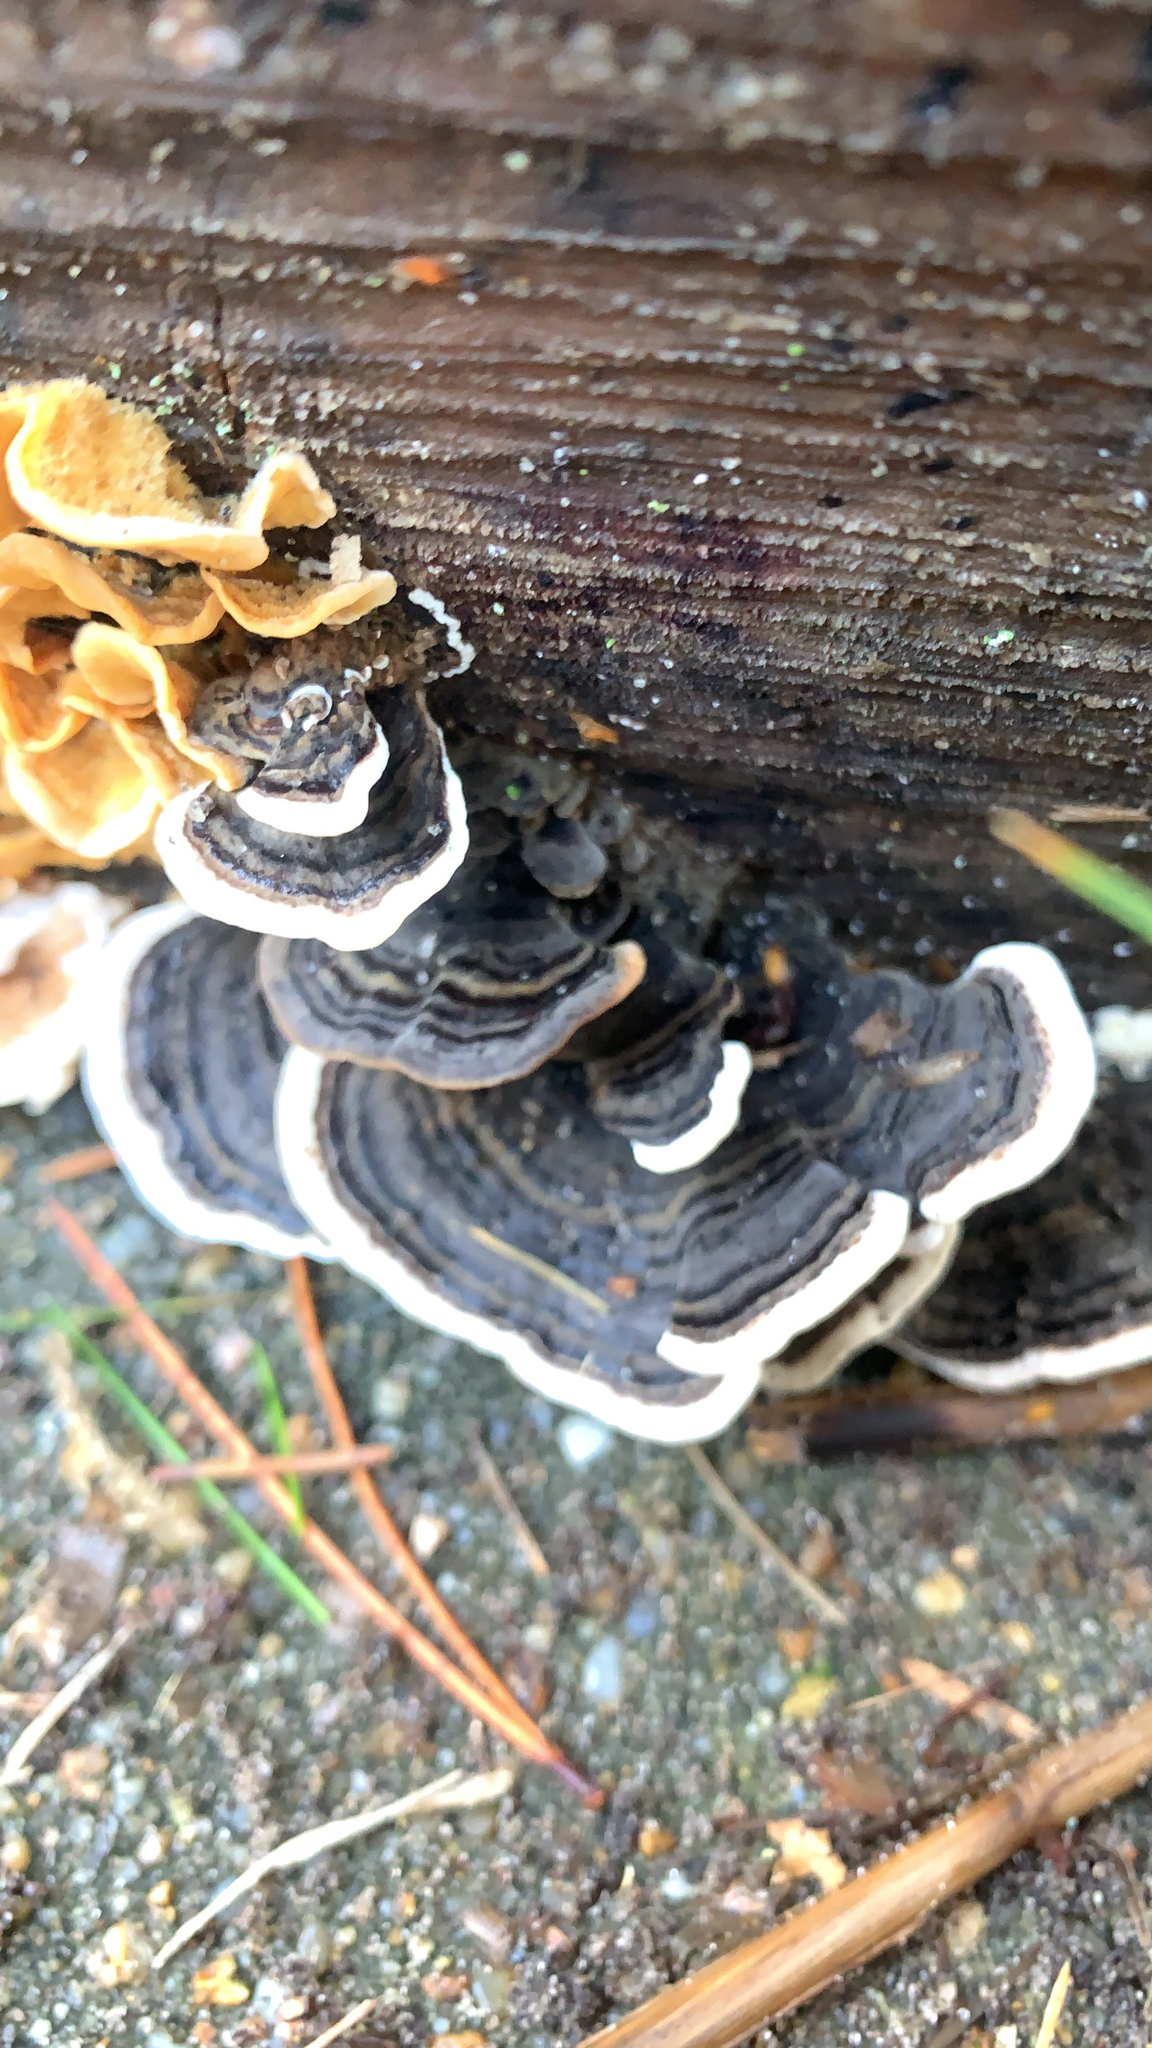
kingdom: Fungi
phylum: Basidiomycota
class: Agaricomycetes
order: Polyporales
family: Polyporaceae
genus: Trametes
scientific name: Trametes versicolor
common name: Turkeytail
